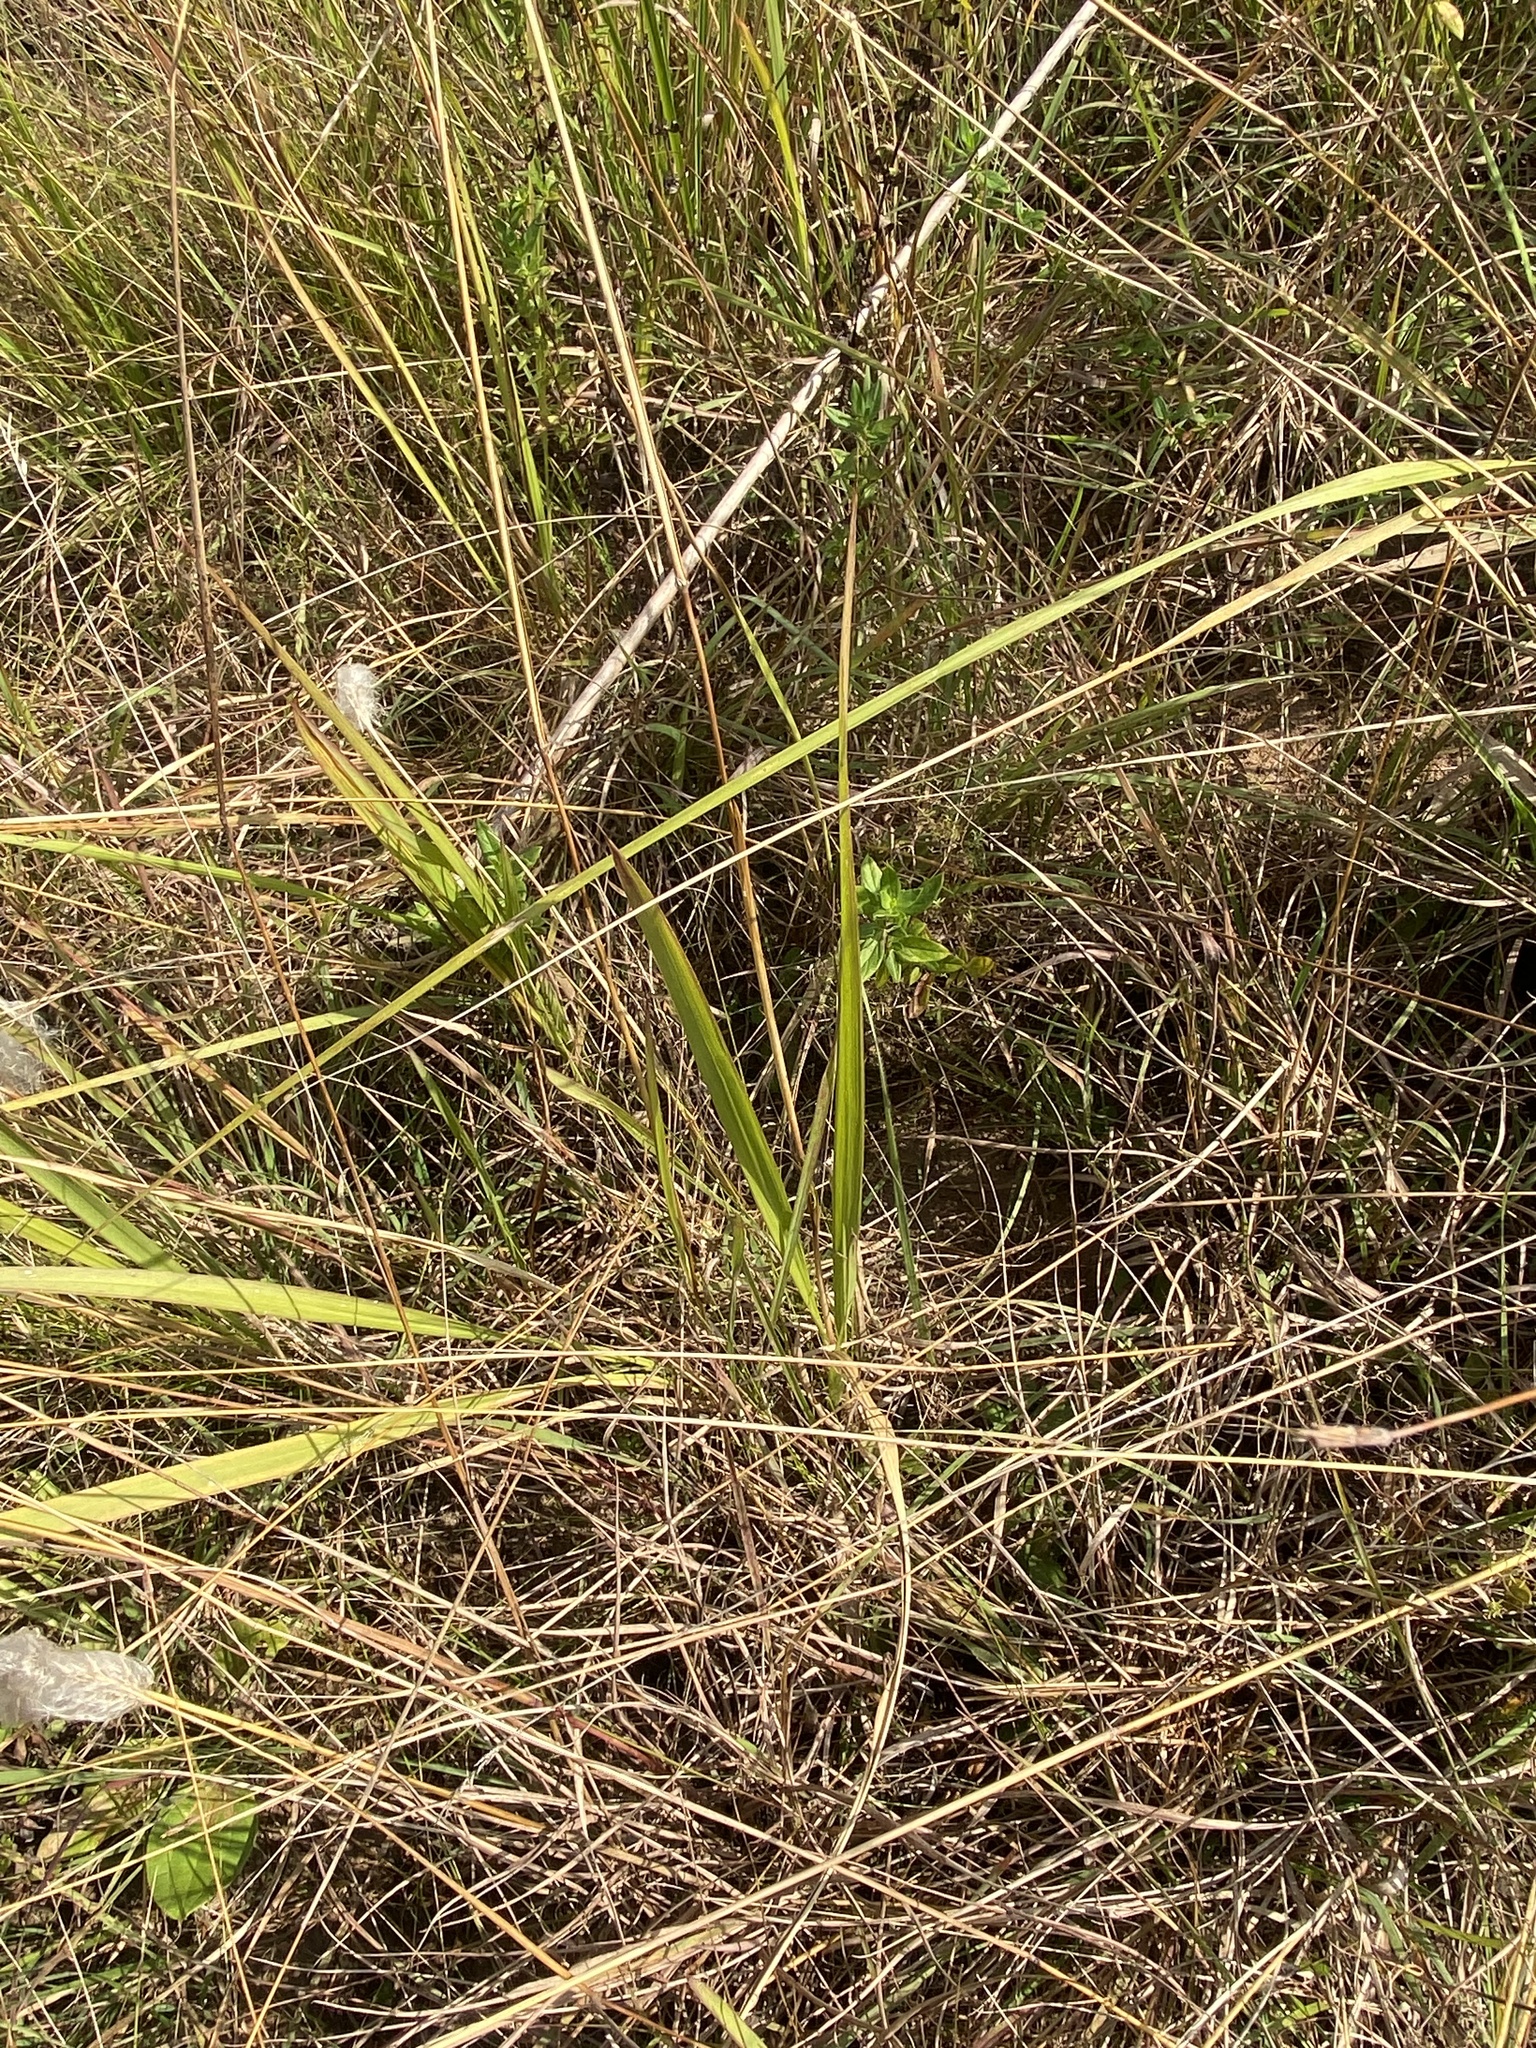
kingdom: Plantae
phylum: Tracheophyta
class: Liliopsida
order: Poales
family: Poaceae
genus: Imperata
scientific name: Imperata cylindrica
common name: Cogongrass
